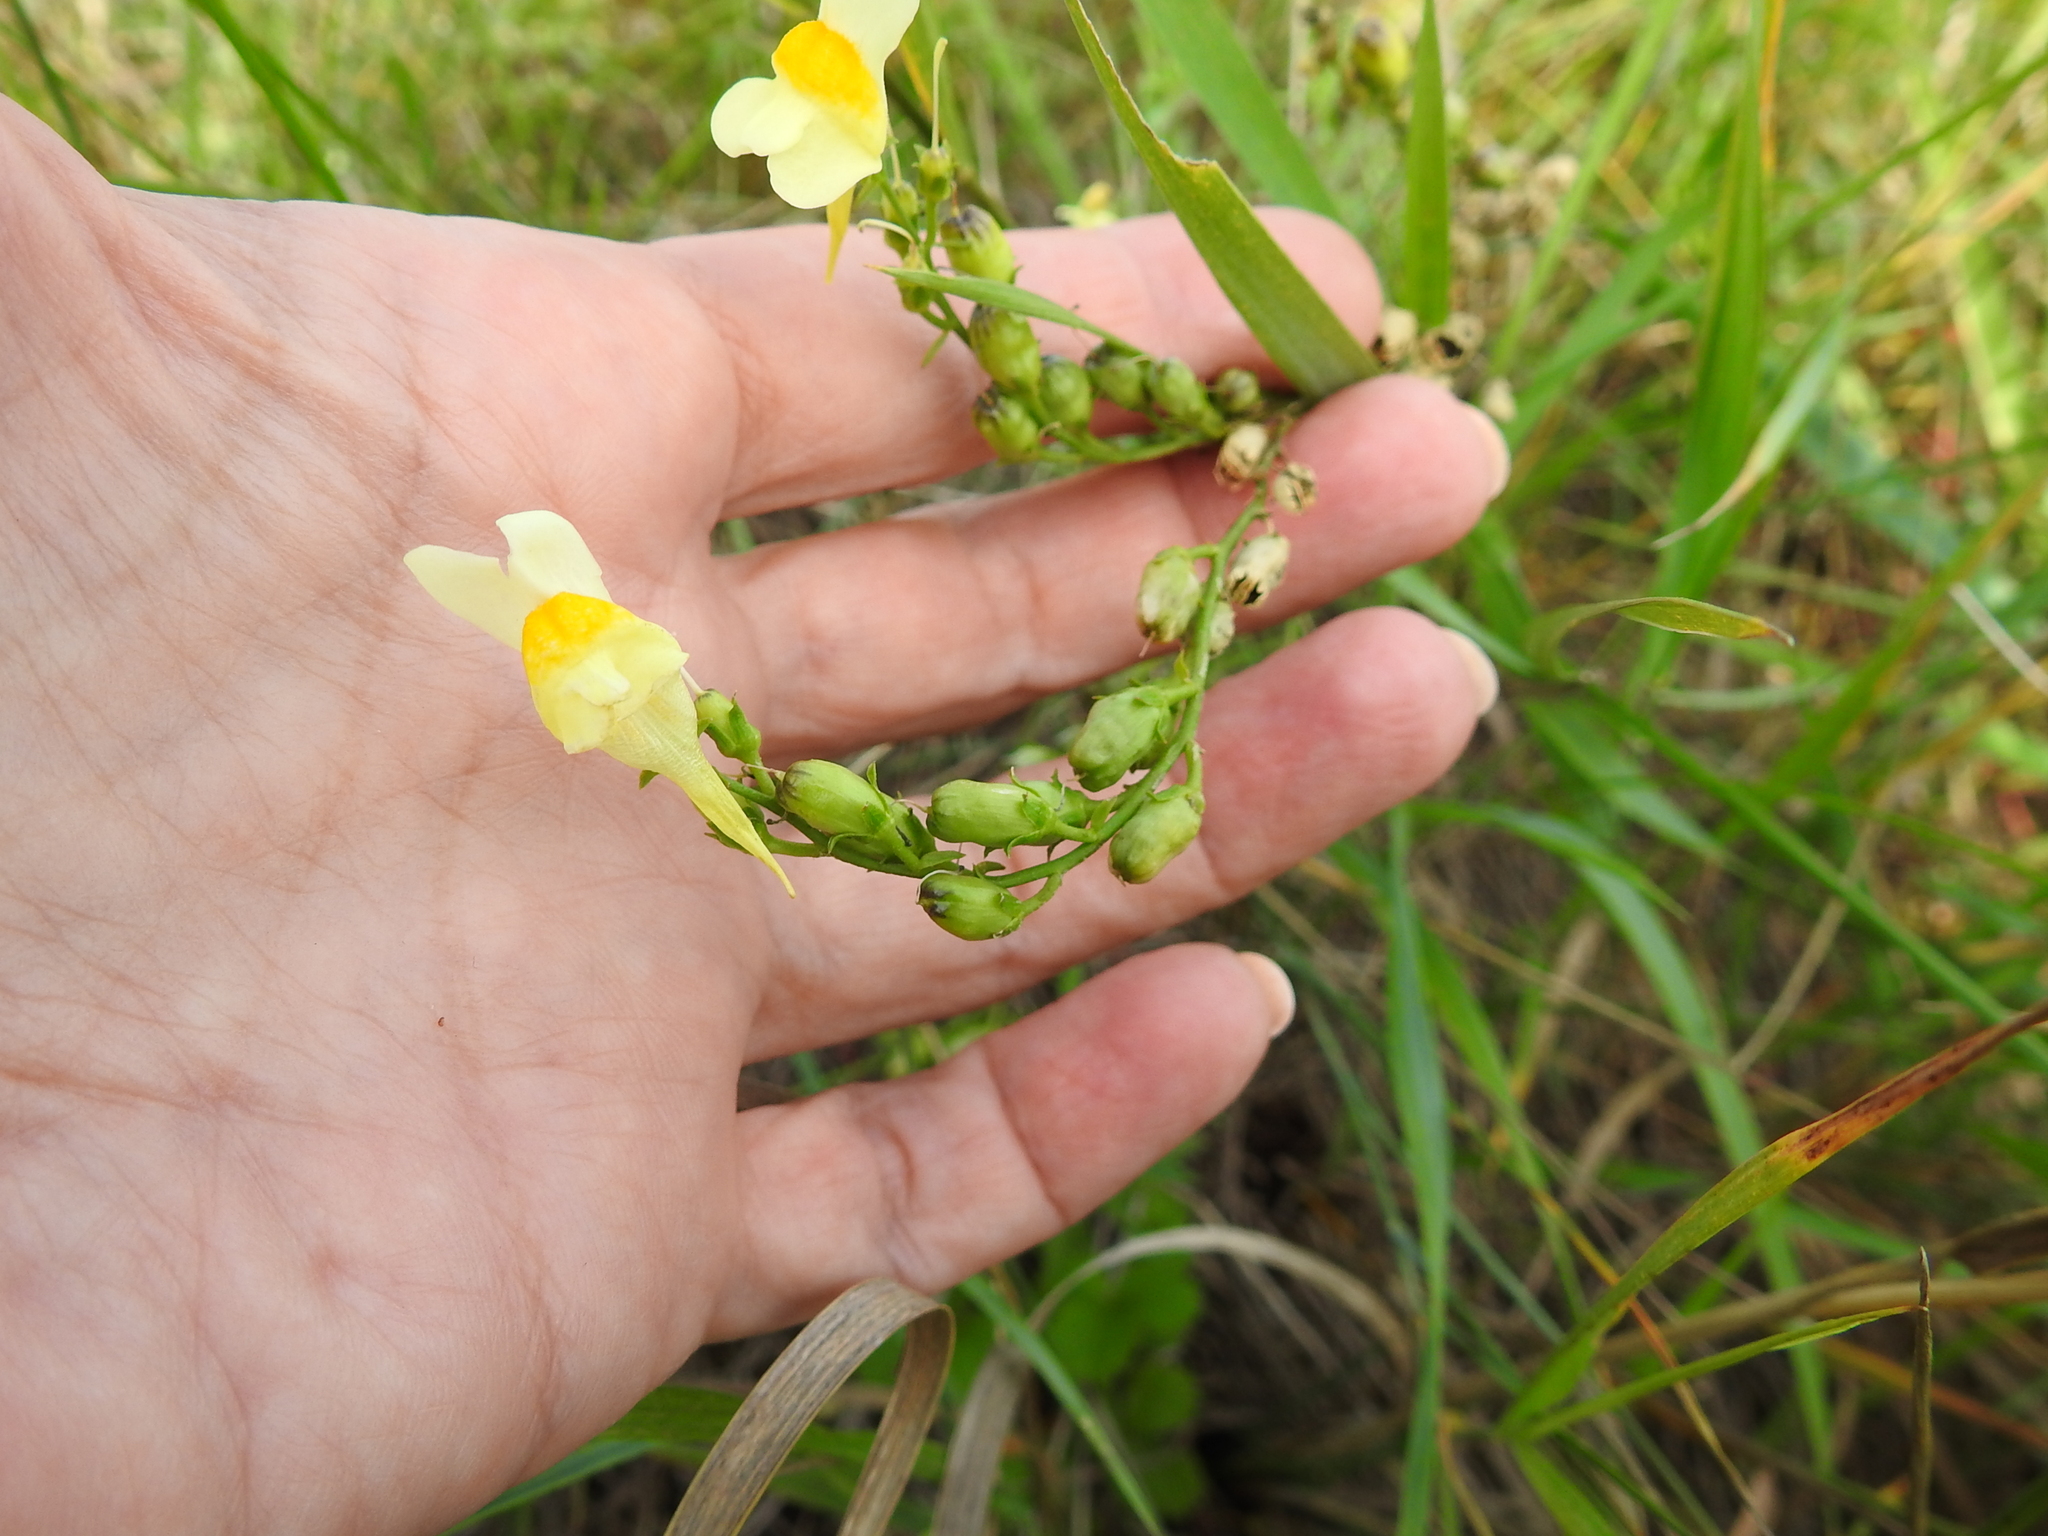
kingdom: Plantae
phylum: Tracheophyta
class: Magnoliopsida
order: Lamiales
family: Plantaginaceae
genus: Linaria
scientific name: Linaria vulgaris
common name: Butter and eggs
